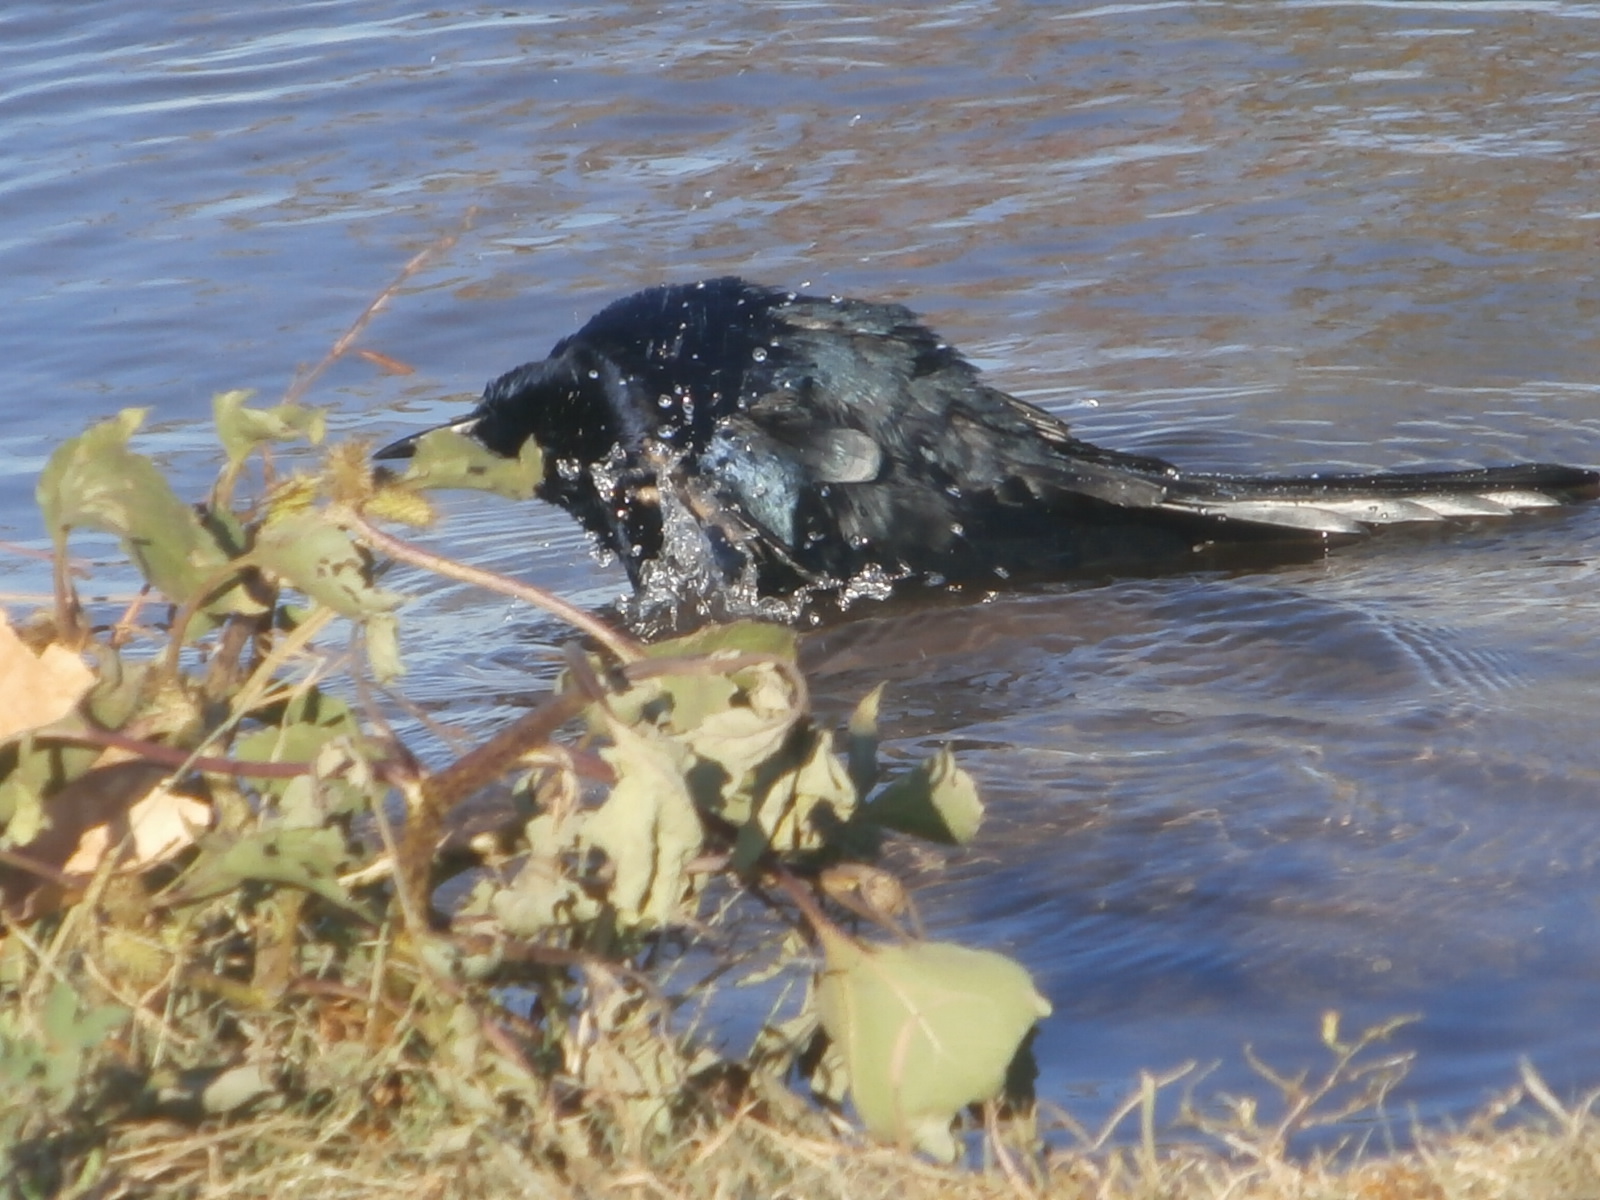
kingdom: Animalia
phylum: Chordata
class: Aves
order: Passeriformes
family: Icteridae
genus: Quiscalus
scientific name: Quiscalus mexicanus
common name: Great-tailed grackle
